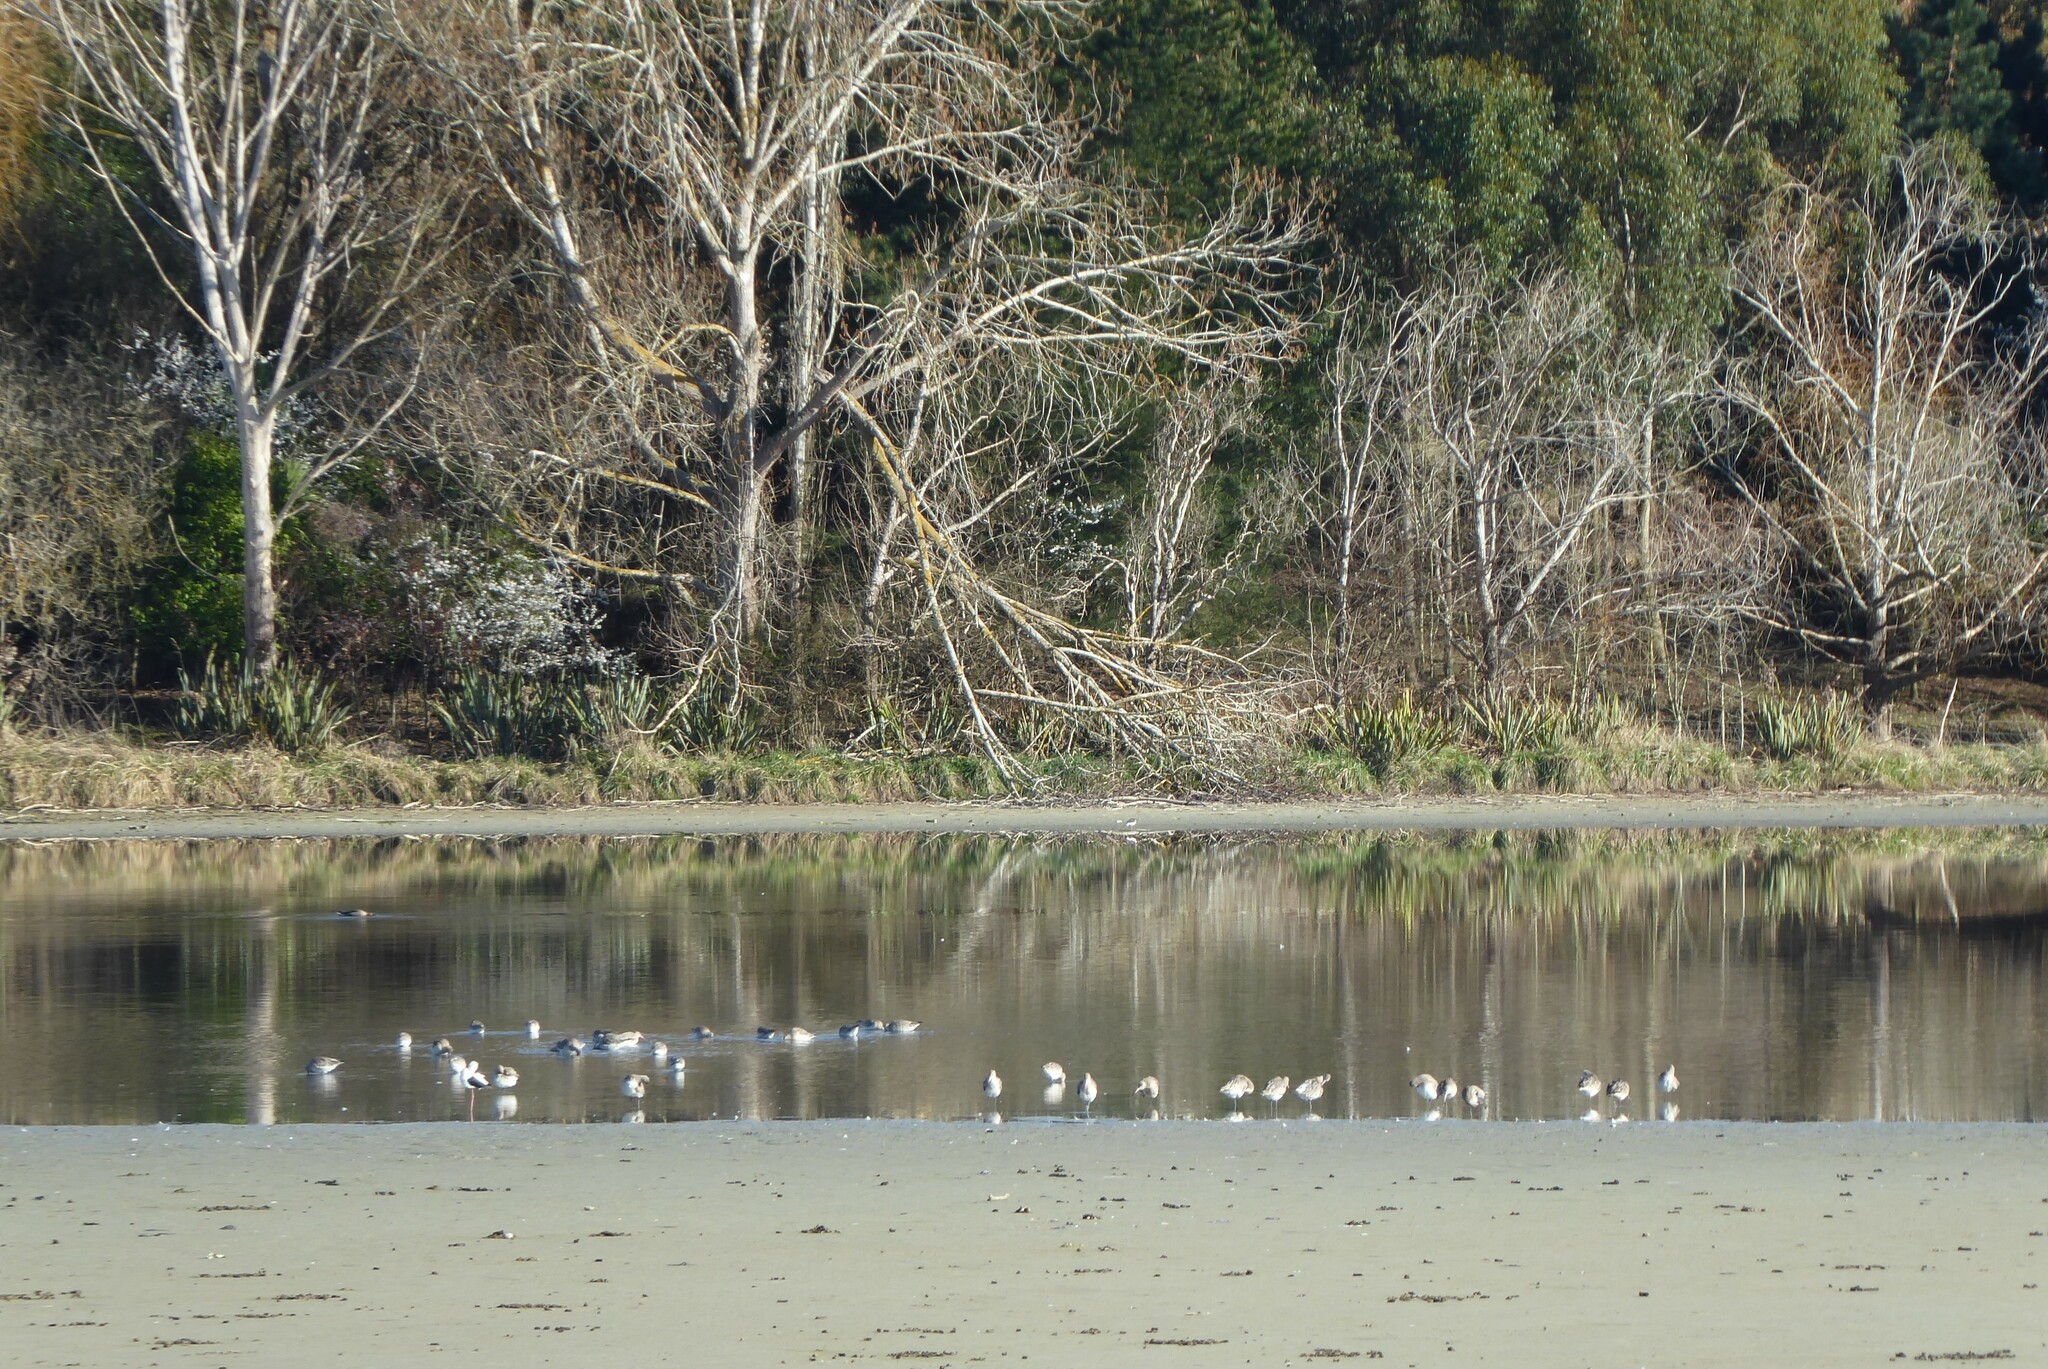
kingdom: Animalia
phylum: Chordata
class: Aves
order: Charadriiformes
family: Scolopacidae
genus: Limosa
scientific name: Limosa lapponica
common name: Bar-tailed godwit
